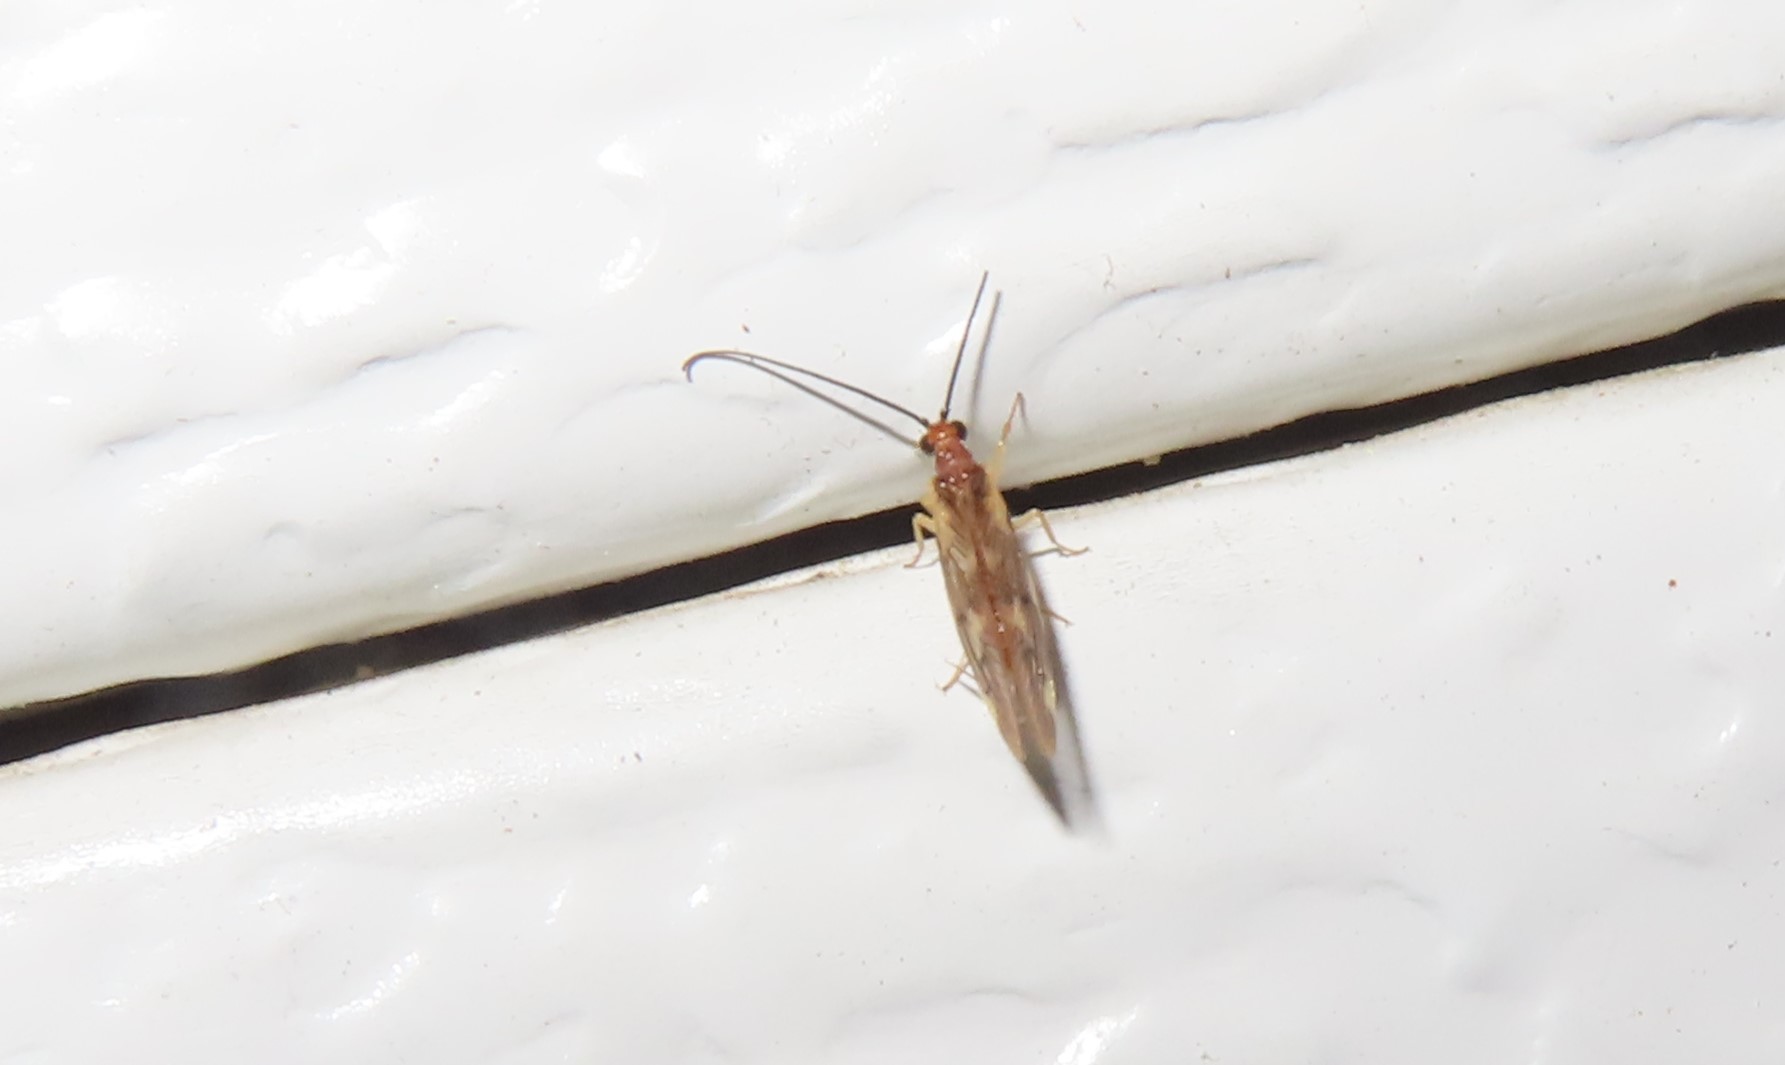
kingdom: Animalia
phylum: Arthropoda
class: Insecta
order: Neuroptera
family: Sisyridae
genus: Climacia
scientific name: Climacia areolaris
